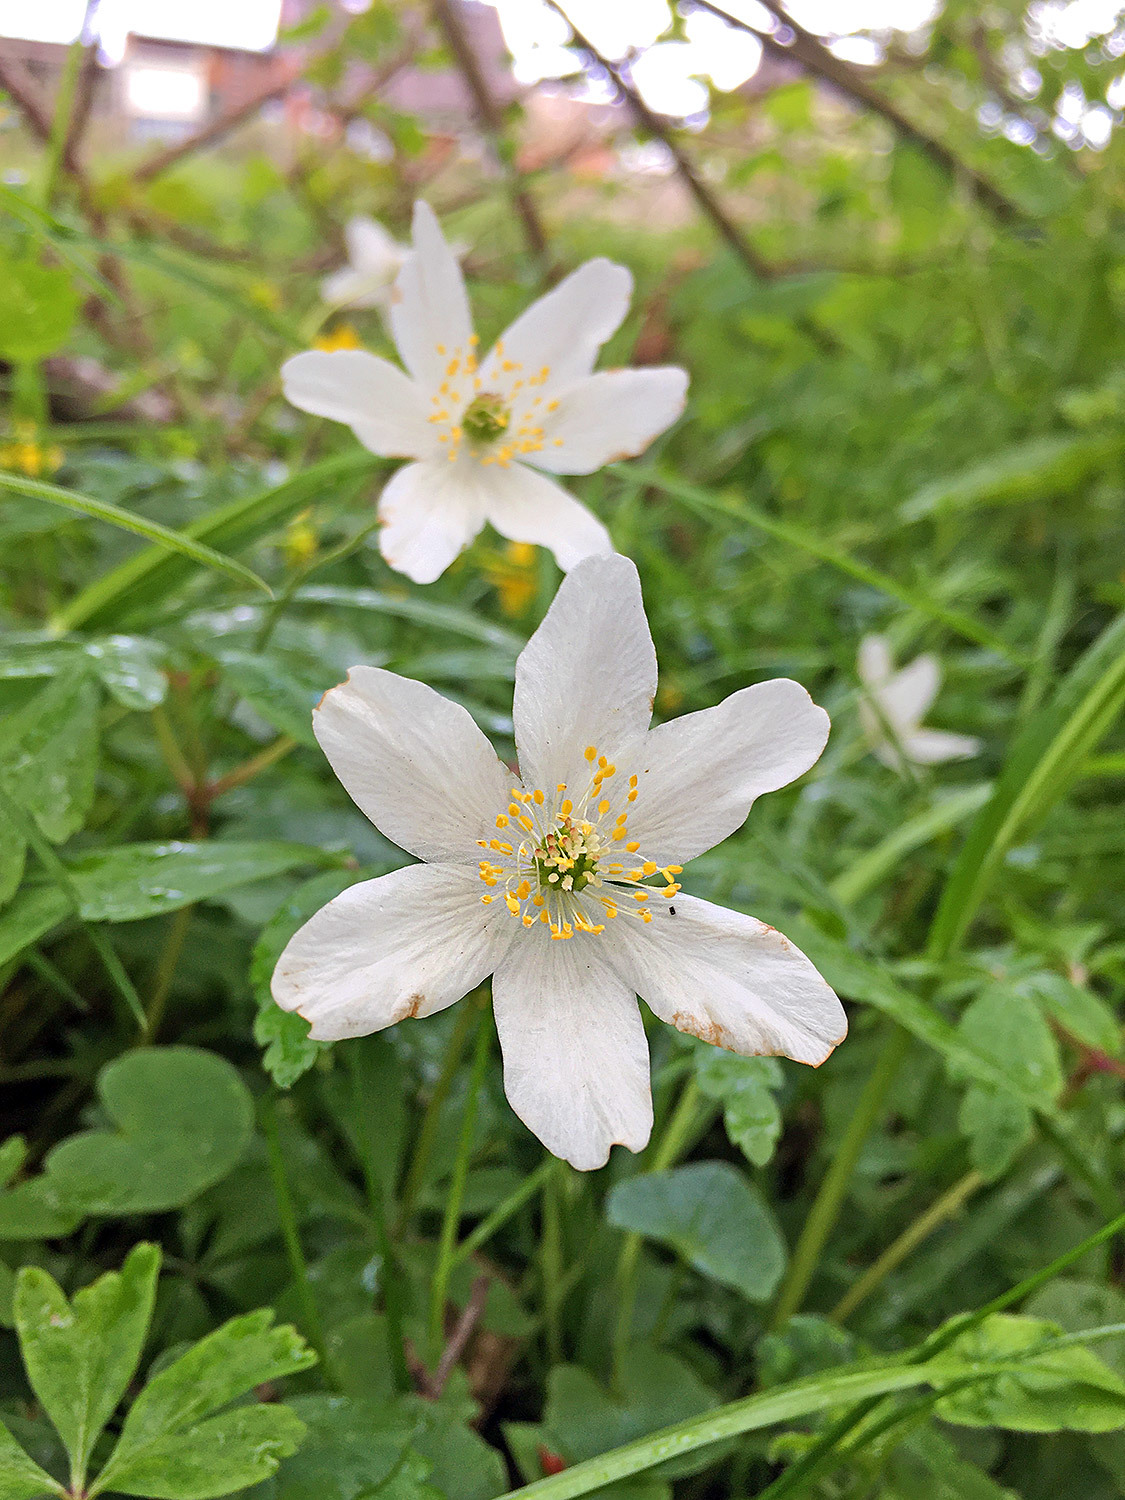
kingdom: Plantae
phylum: Tracheophyta
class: Magnoliopsida
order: Ranunculales
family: Ranunculaceae
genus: Anemone
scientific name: Anemone nemorosa
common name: Wood anemone
